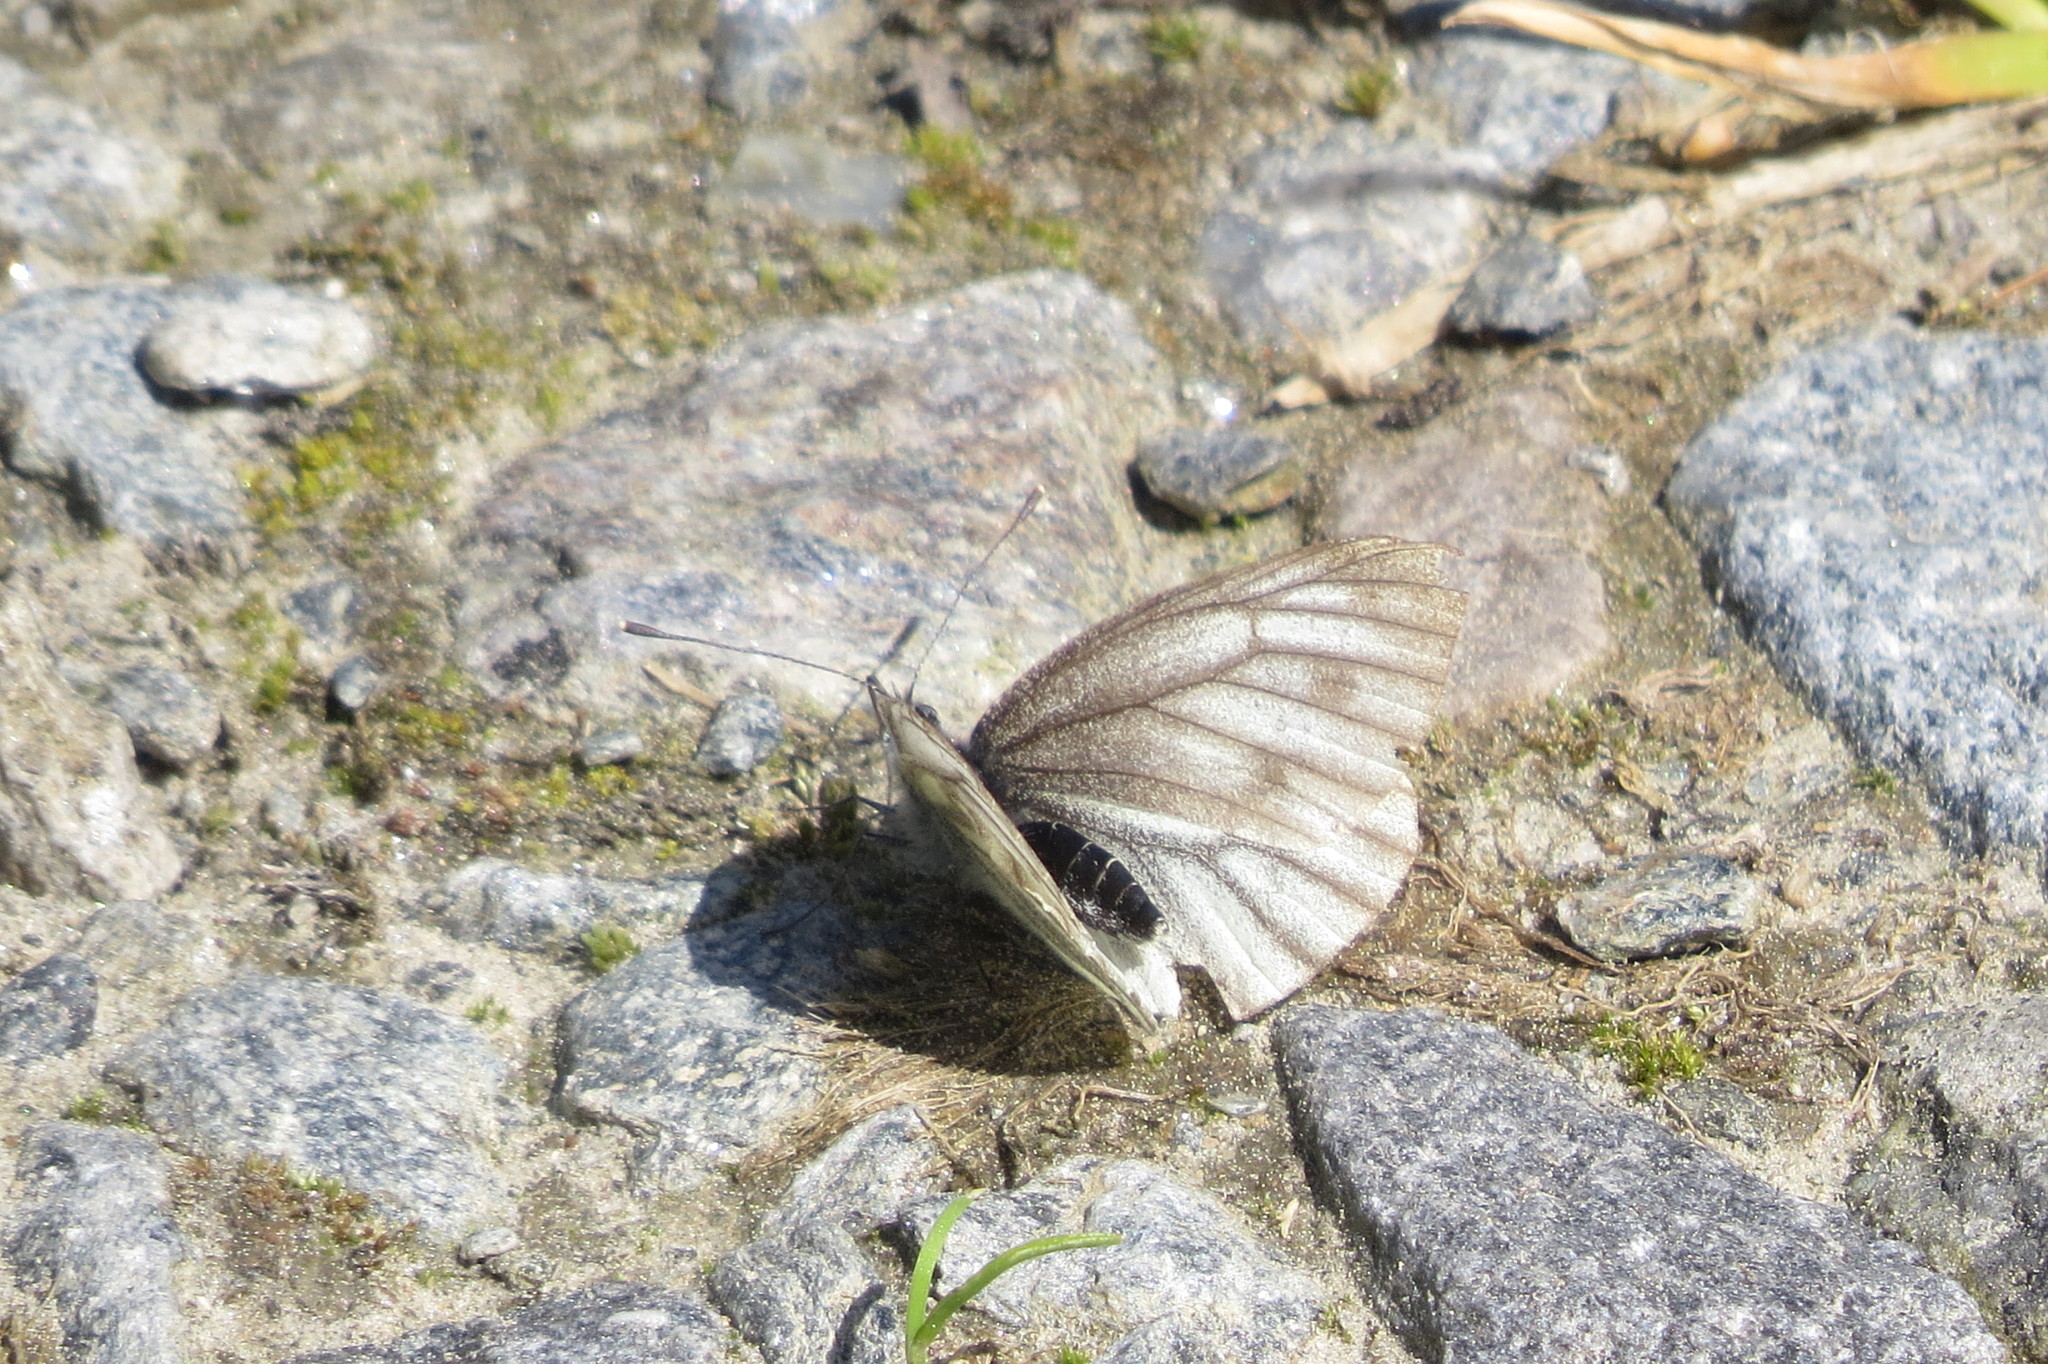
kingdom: Animalia
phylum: Arthropoda
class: Insecta
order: Lepidoptera
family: Pieridae
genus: Pieris
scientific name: Pieris bryoniae
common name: Mountain green-veined white
